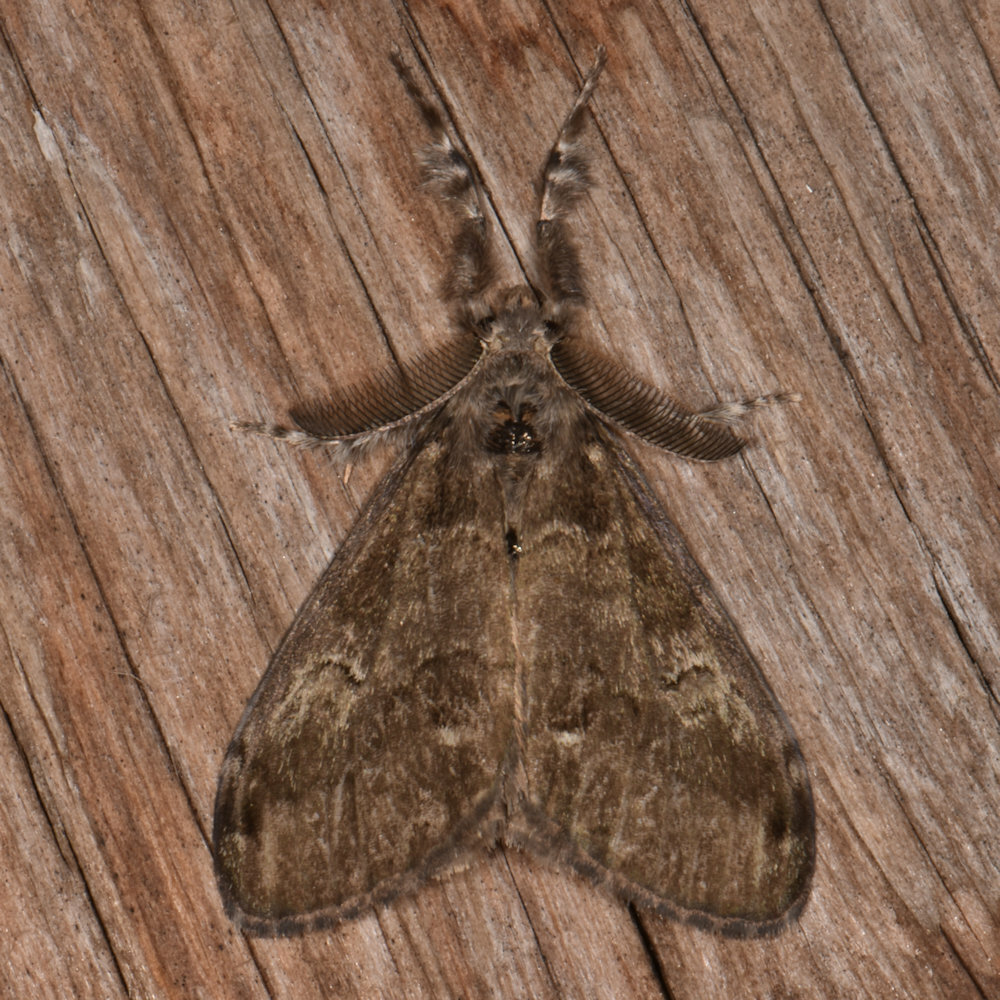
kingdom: Animalia
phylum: Arthropoda
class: Insecta
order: Lepidoptera
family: Erebidae
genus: Orgyia
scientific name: Orgyia leucostigma
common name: White-marked tussock moth
